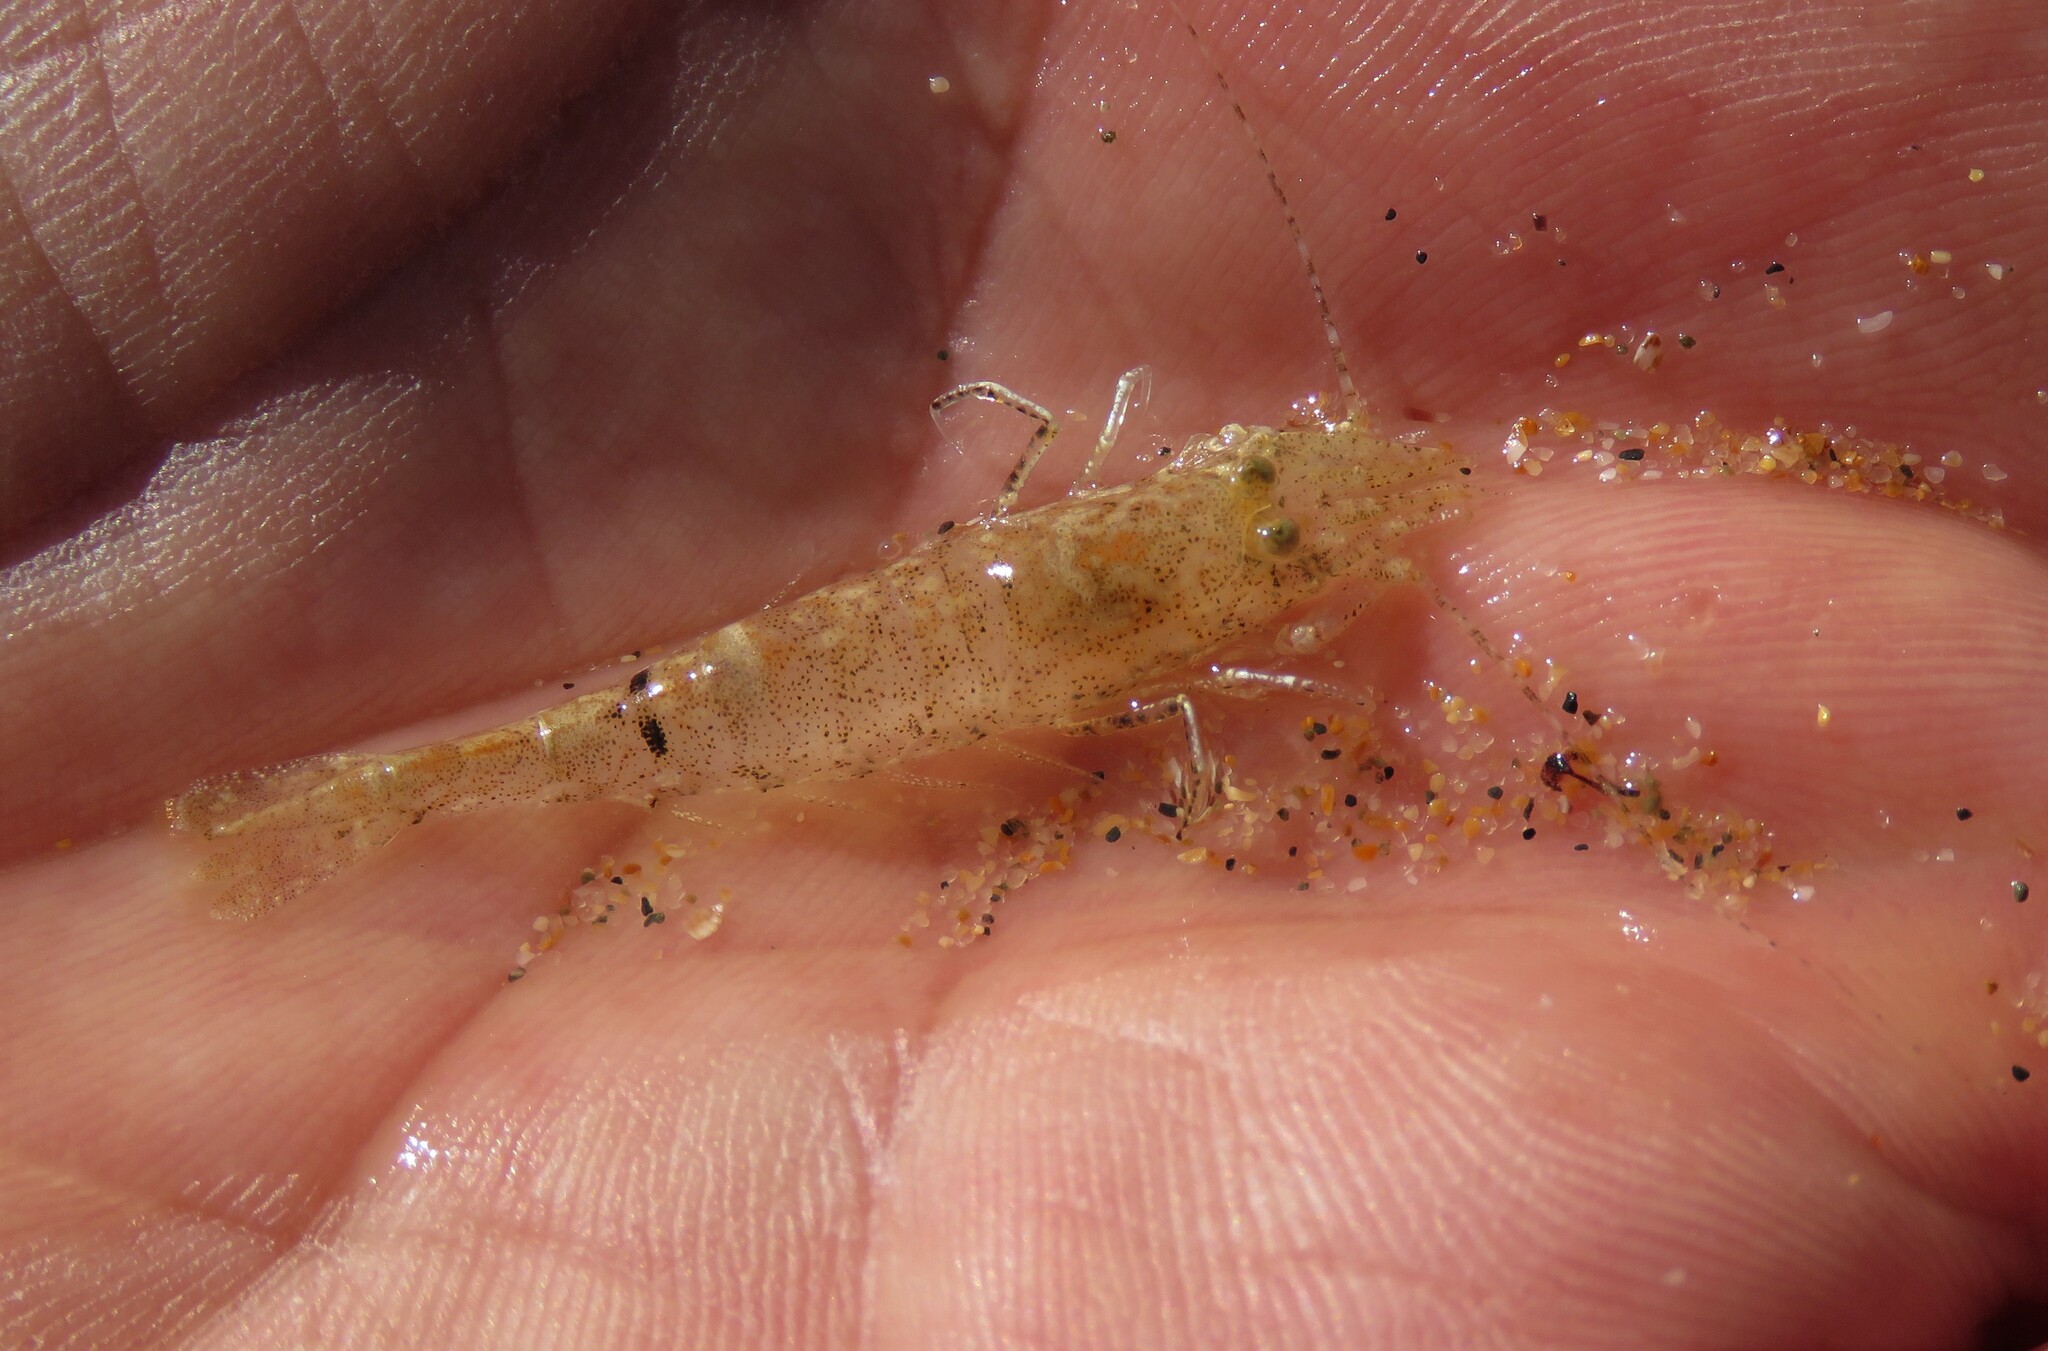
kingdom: Animalia
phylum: Arthropoda
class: Malacostraca
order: Decapoda
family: Crangonidae
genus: Crangon
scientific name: Crangon crangon
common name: Brown shrimp
